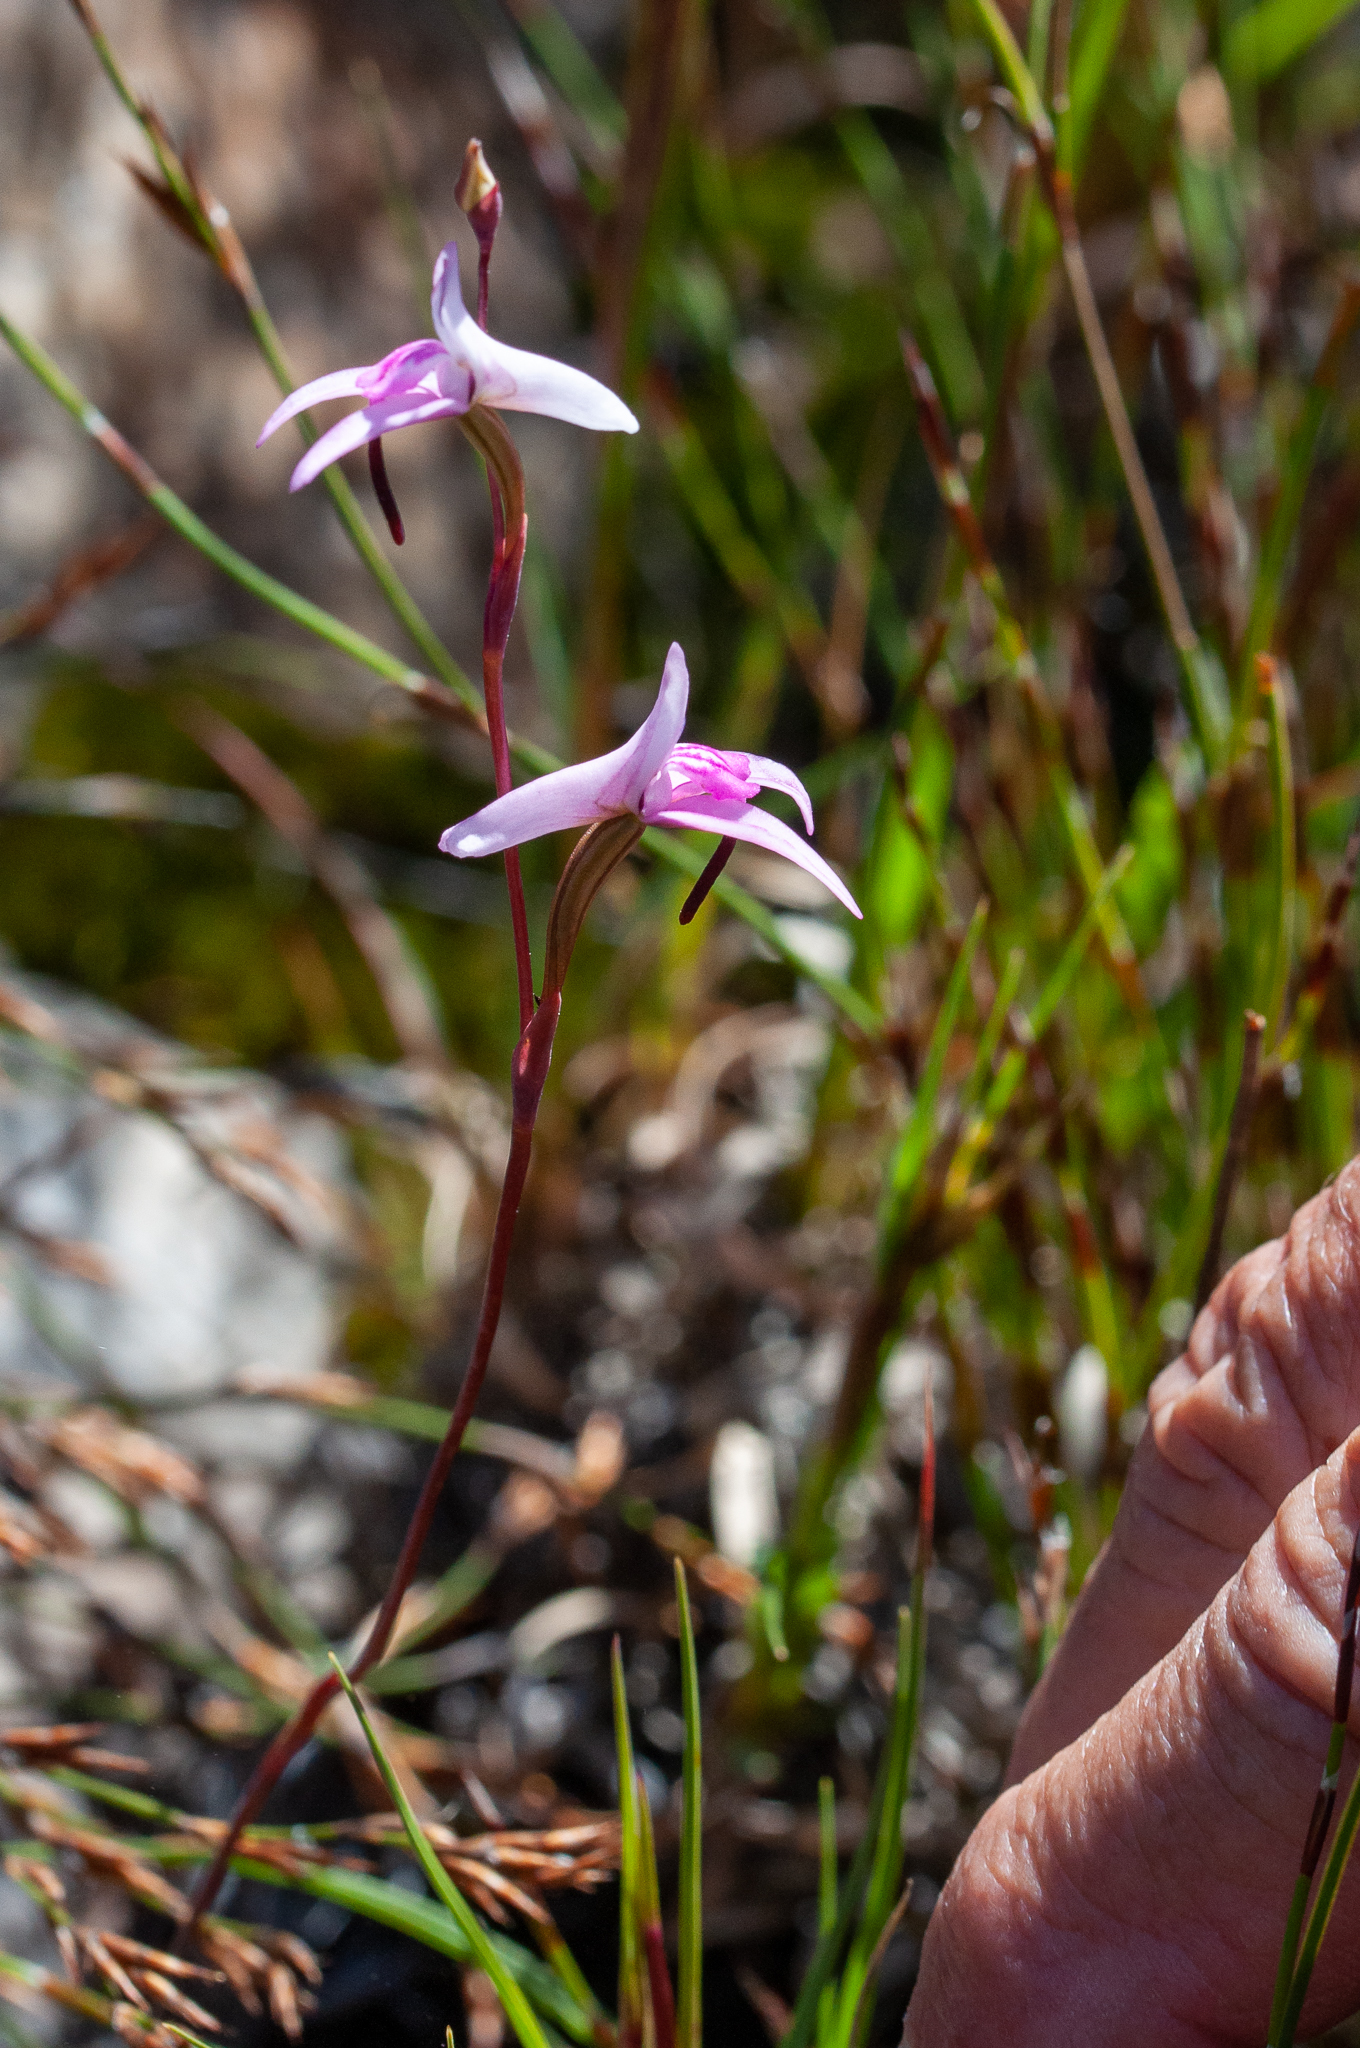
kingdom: Plantae
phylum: Tracheophyta
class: Liliopsida
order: Asparagales
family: Orchidaceae
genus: Disa
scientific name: Disa inflexa
